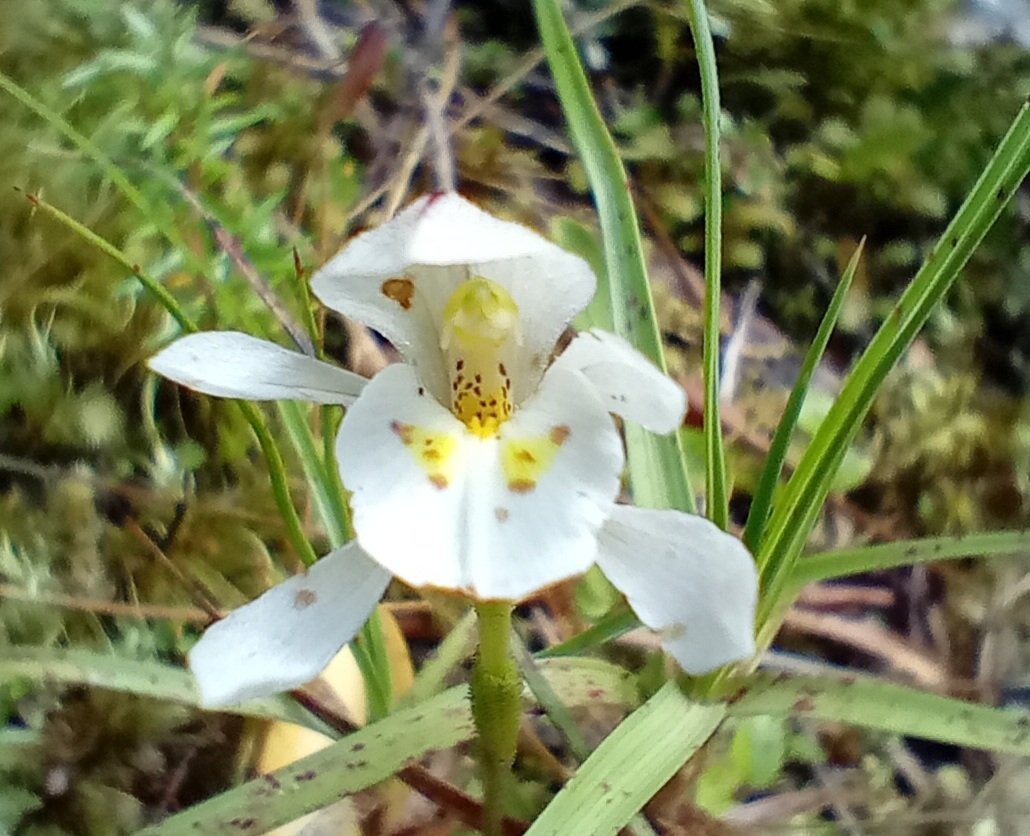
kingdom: Plantae
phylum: Tracheophyta
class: Liliopsida
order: Asparagales
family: Orchidaceae
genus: Aporostylis
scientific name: Aporostylis bifolia
